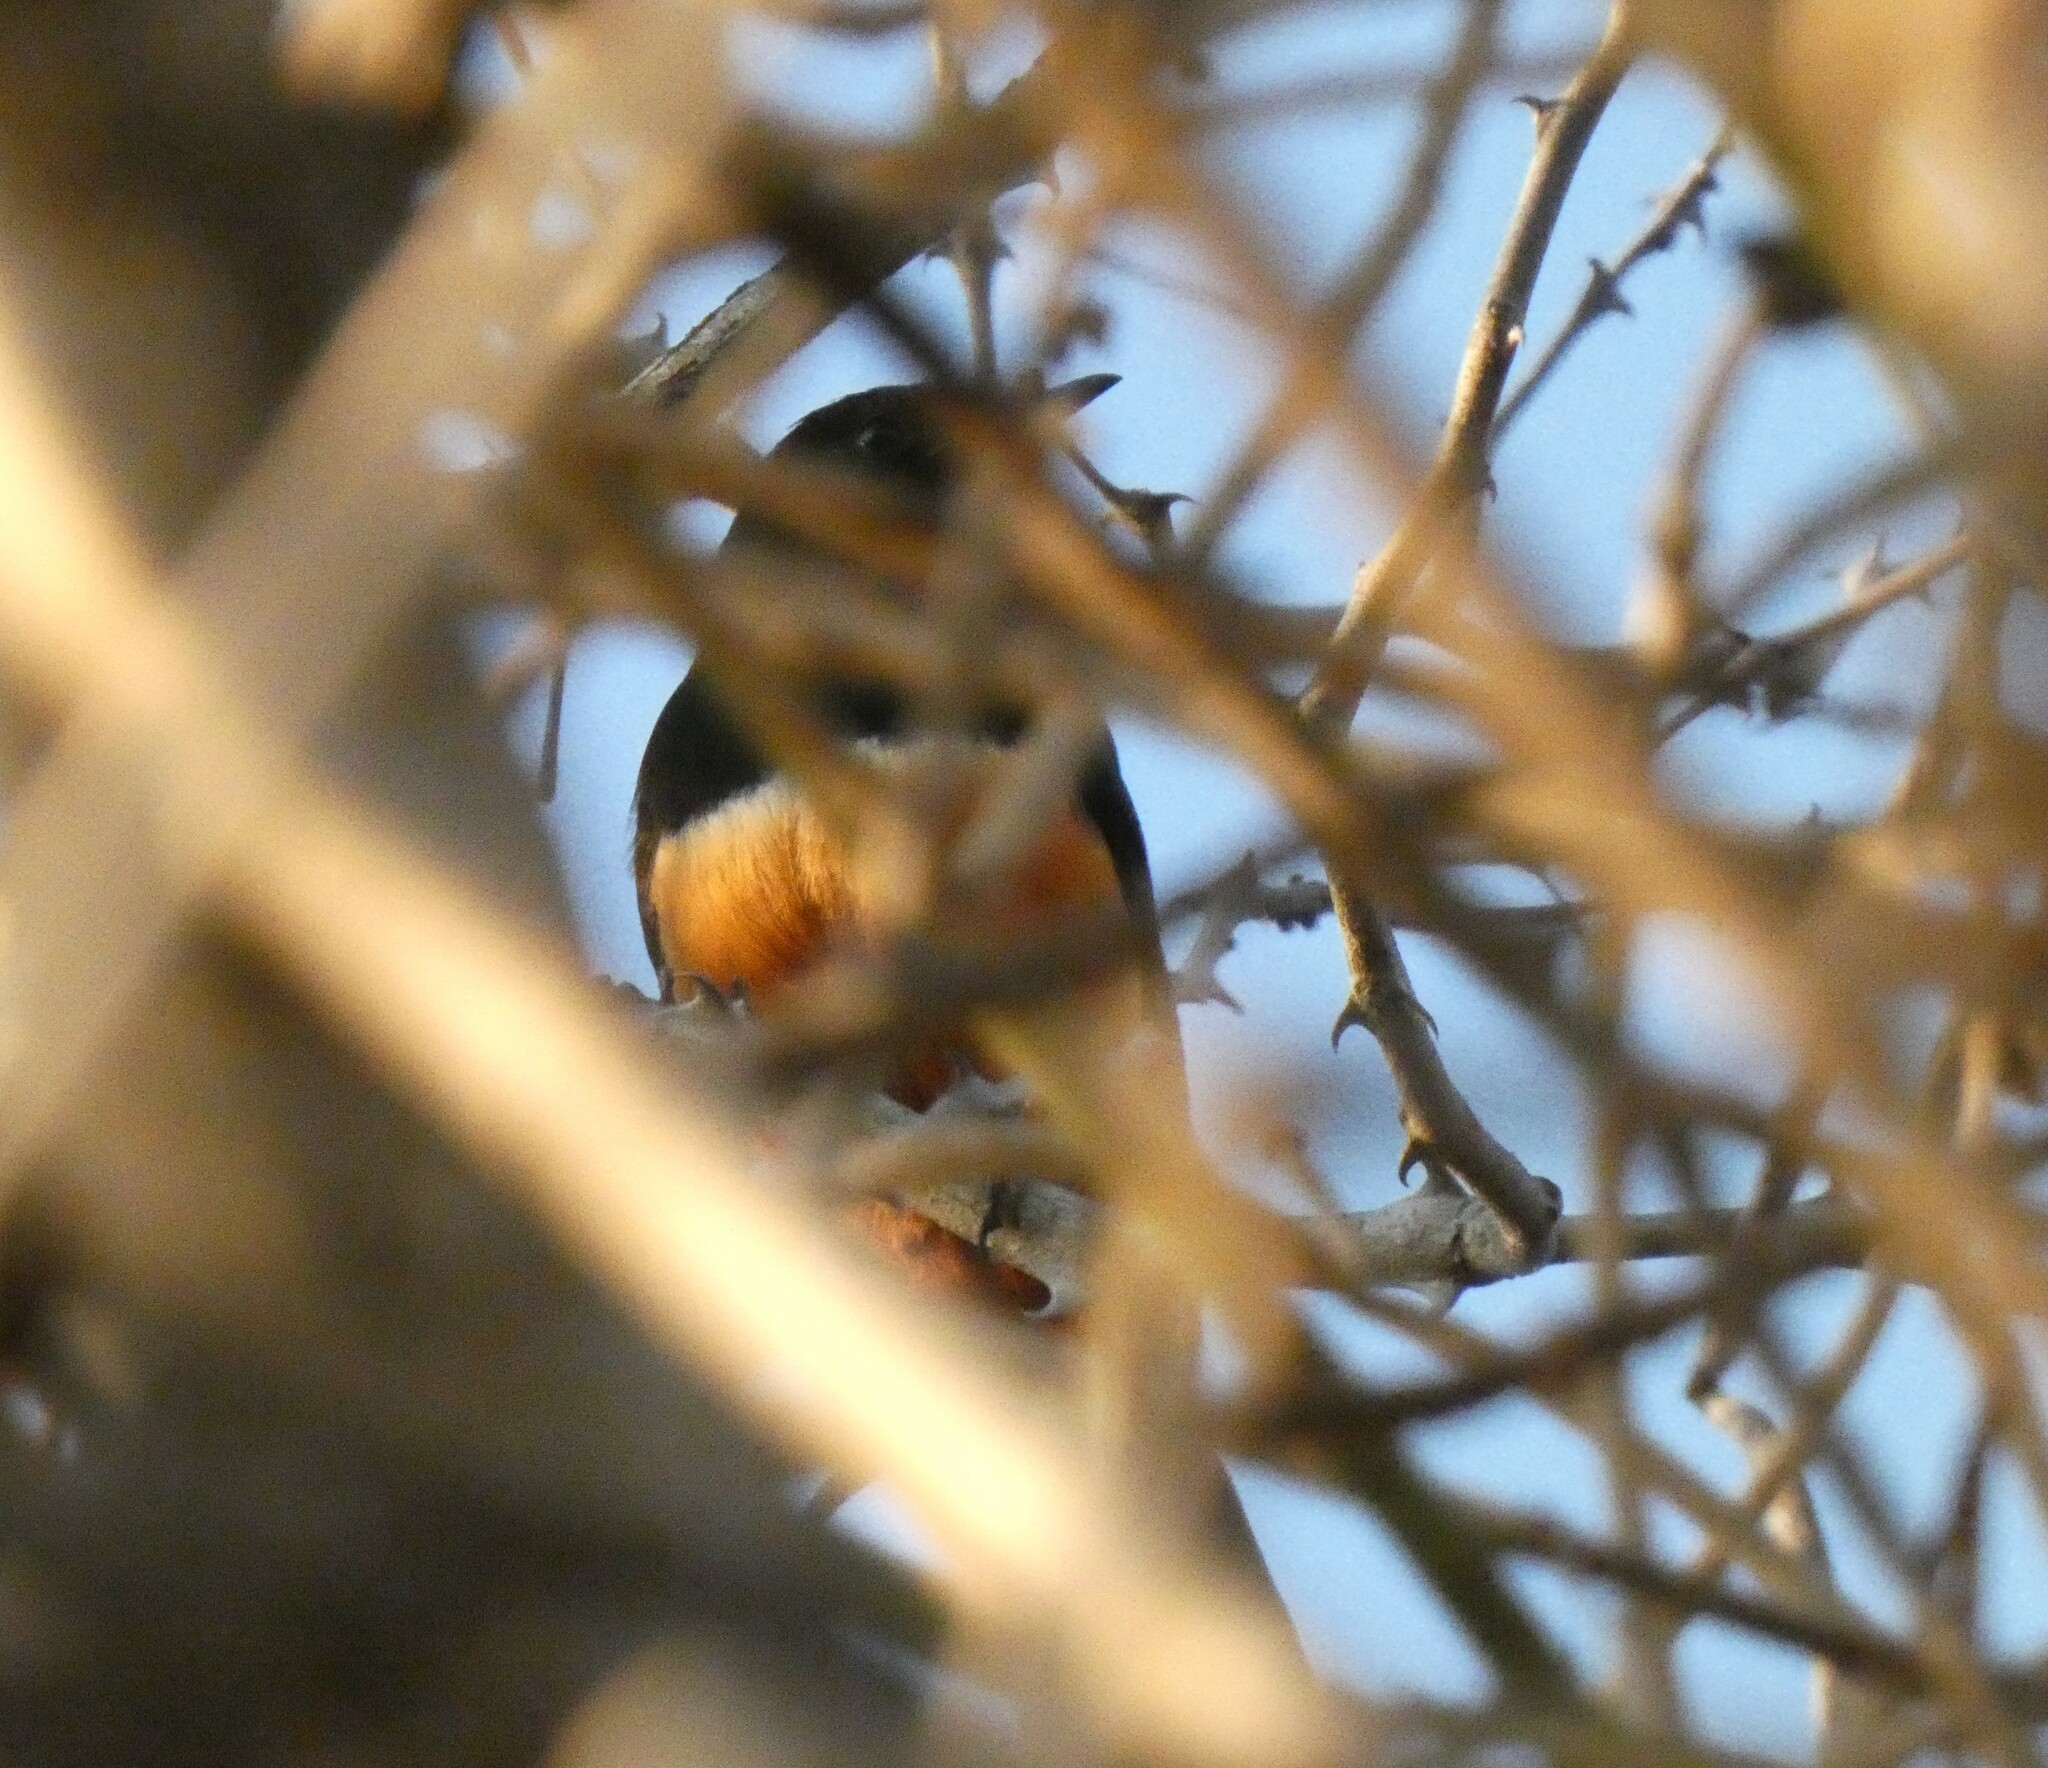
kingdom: Animalia
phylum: Chordata
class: Aves
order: Passeriformes
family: Muscicapidae
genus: Thamnolaea
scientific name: Thamnolaea cinnamomeiventris
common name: Mocking cliff chat
